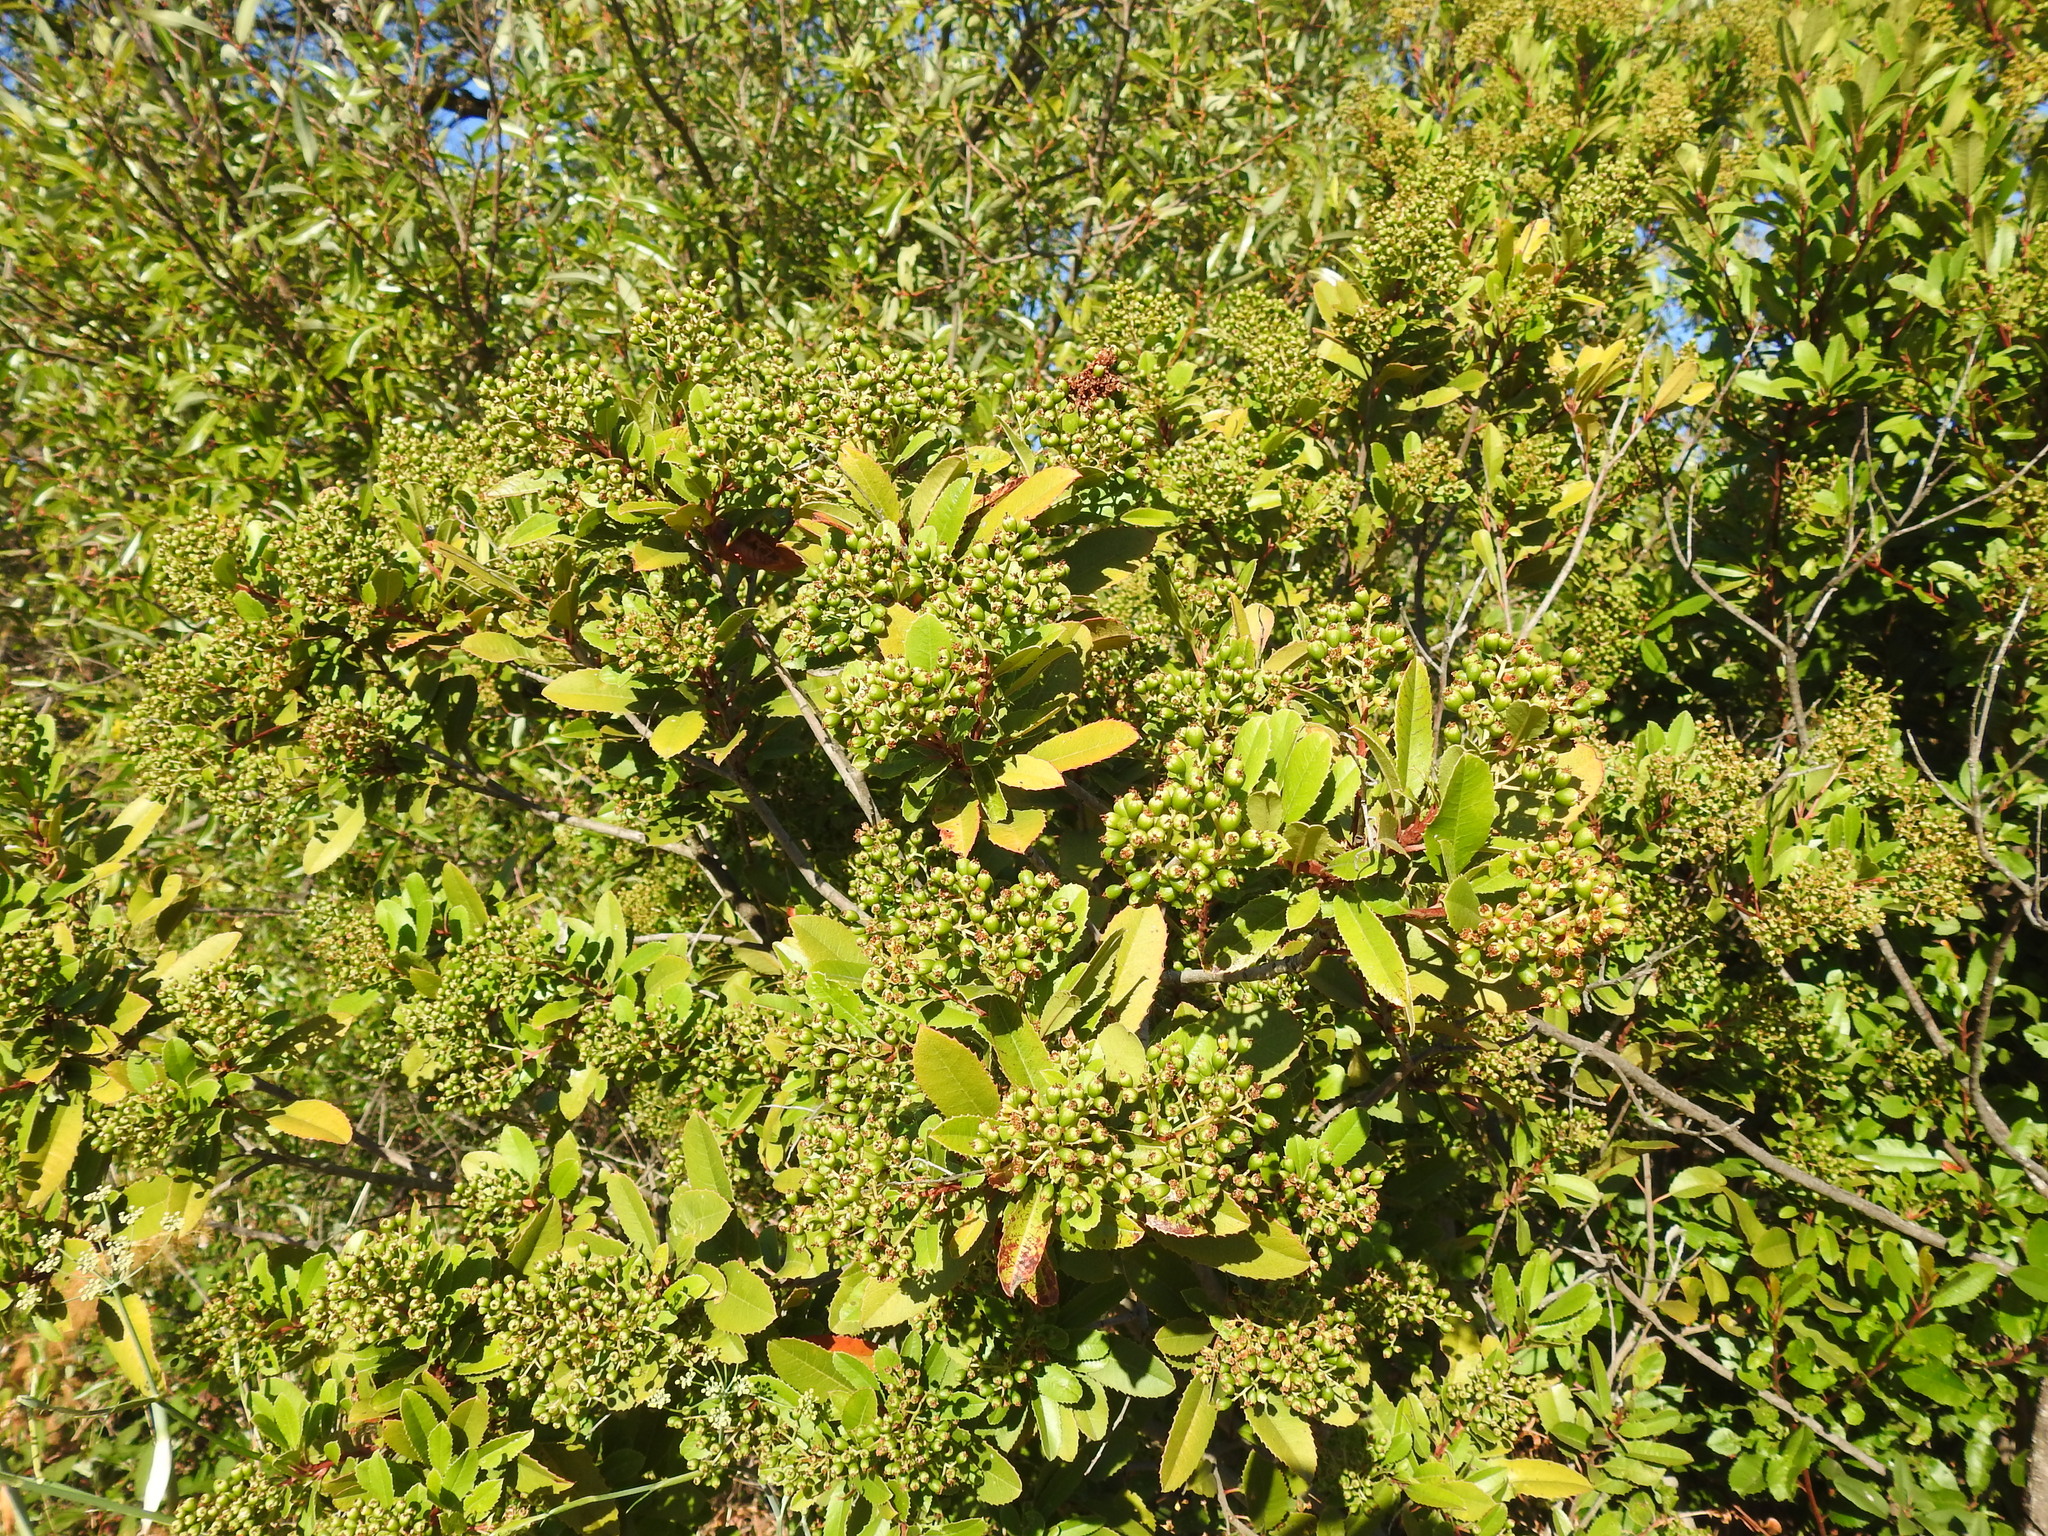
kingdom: Plantae
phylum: Tracheophyta
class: Magnoliopsida
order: Rosales
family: Rosaceae
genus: Heteromeles
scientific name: Heteromeles arbutifolia
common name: California-holly
